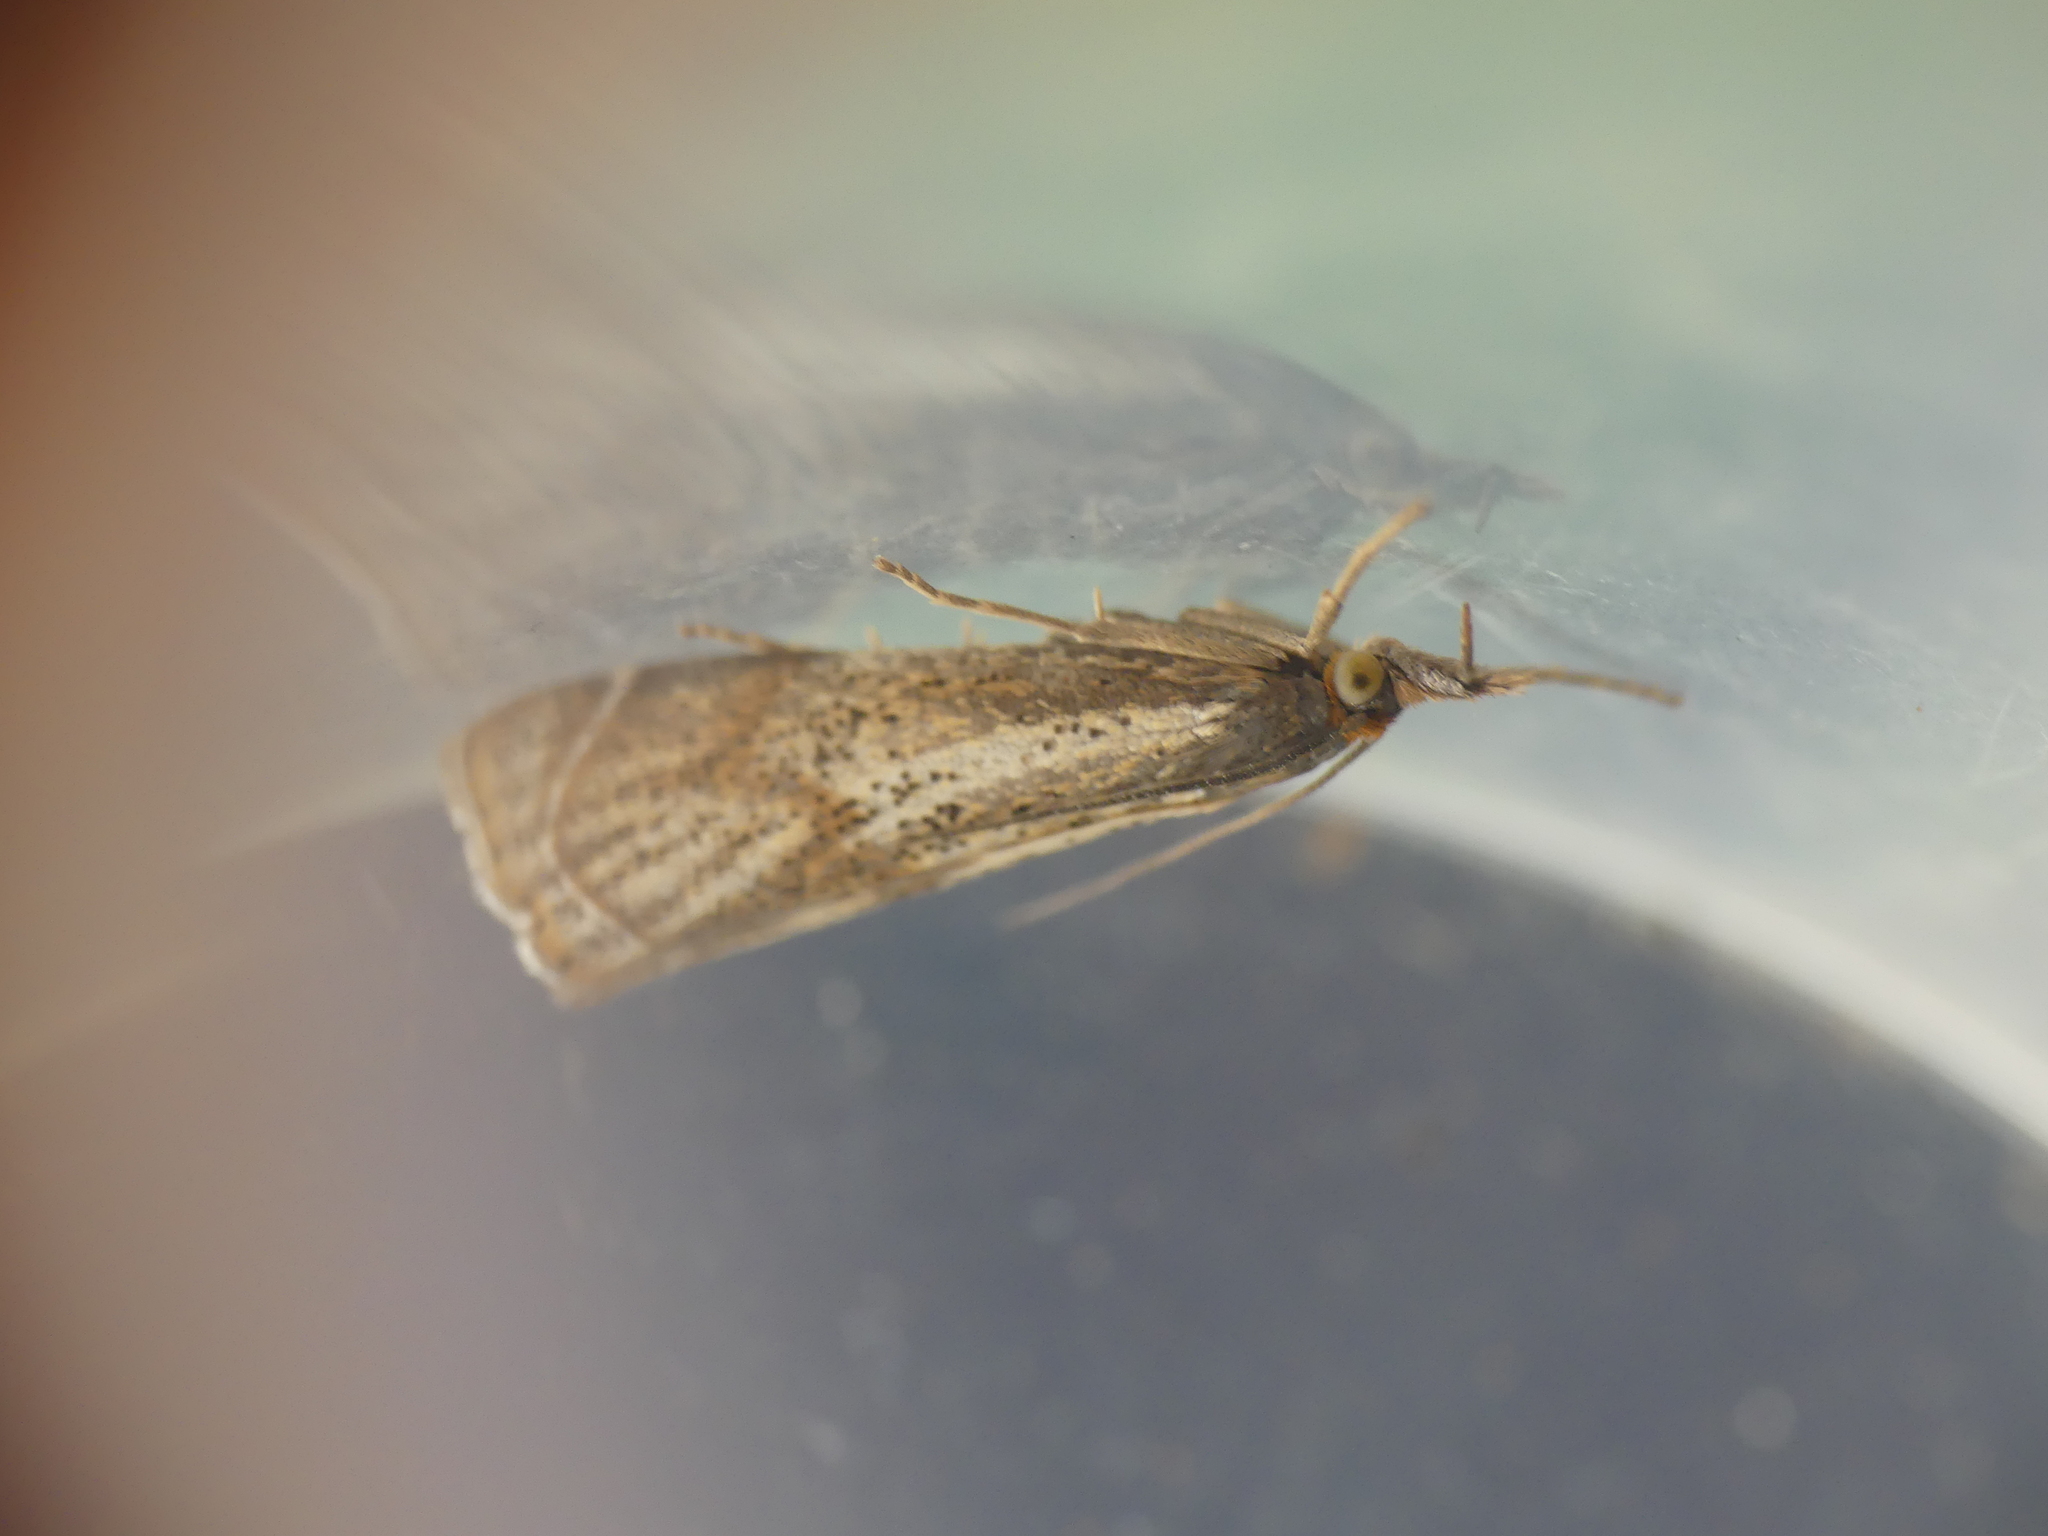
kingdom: Animalia
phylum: Arthropoda
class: Insecta
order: Lepidoptera
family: Crambidae
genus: Thisanotia
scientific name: Thisanotia chrysonuchella
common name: Powdered grass-veneer
